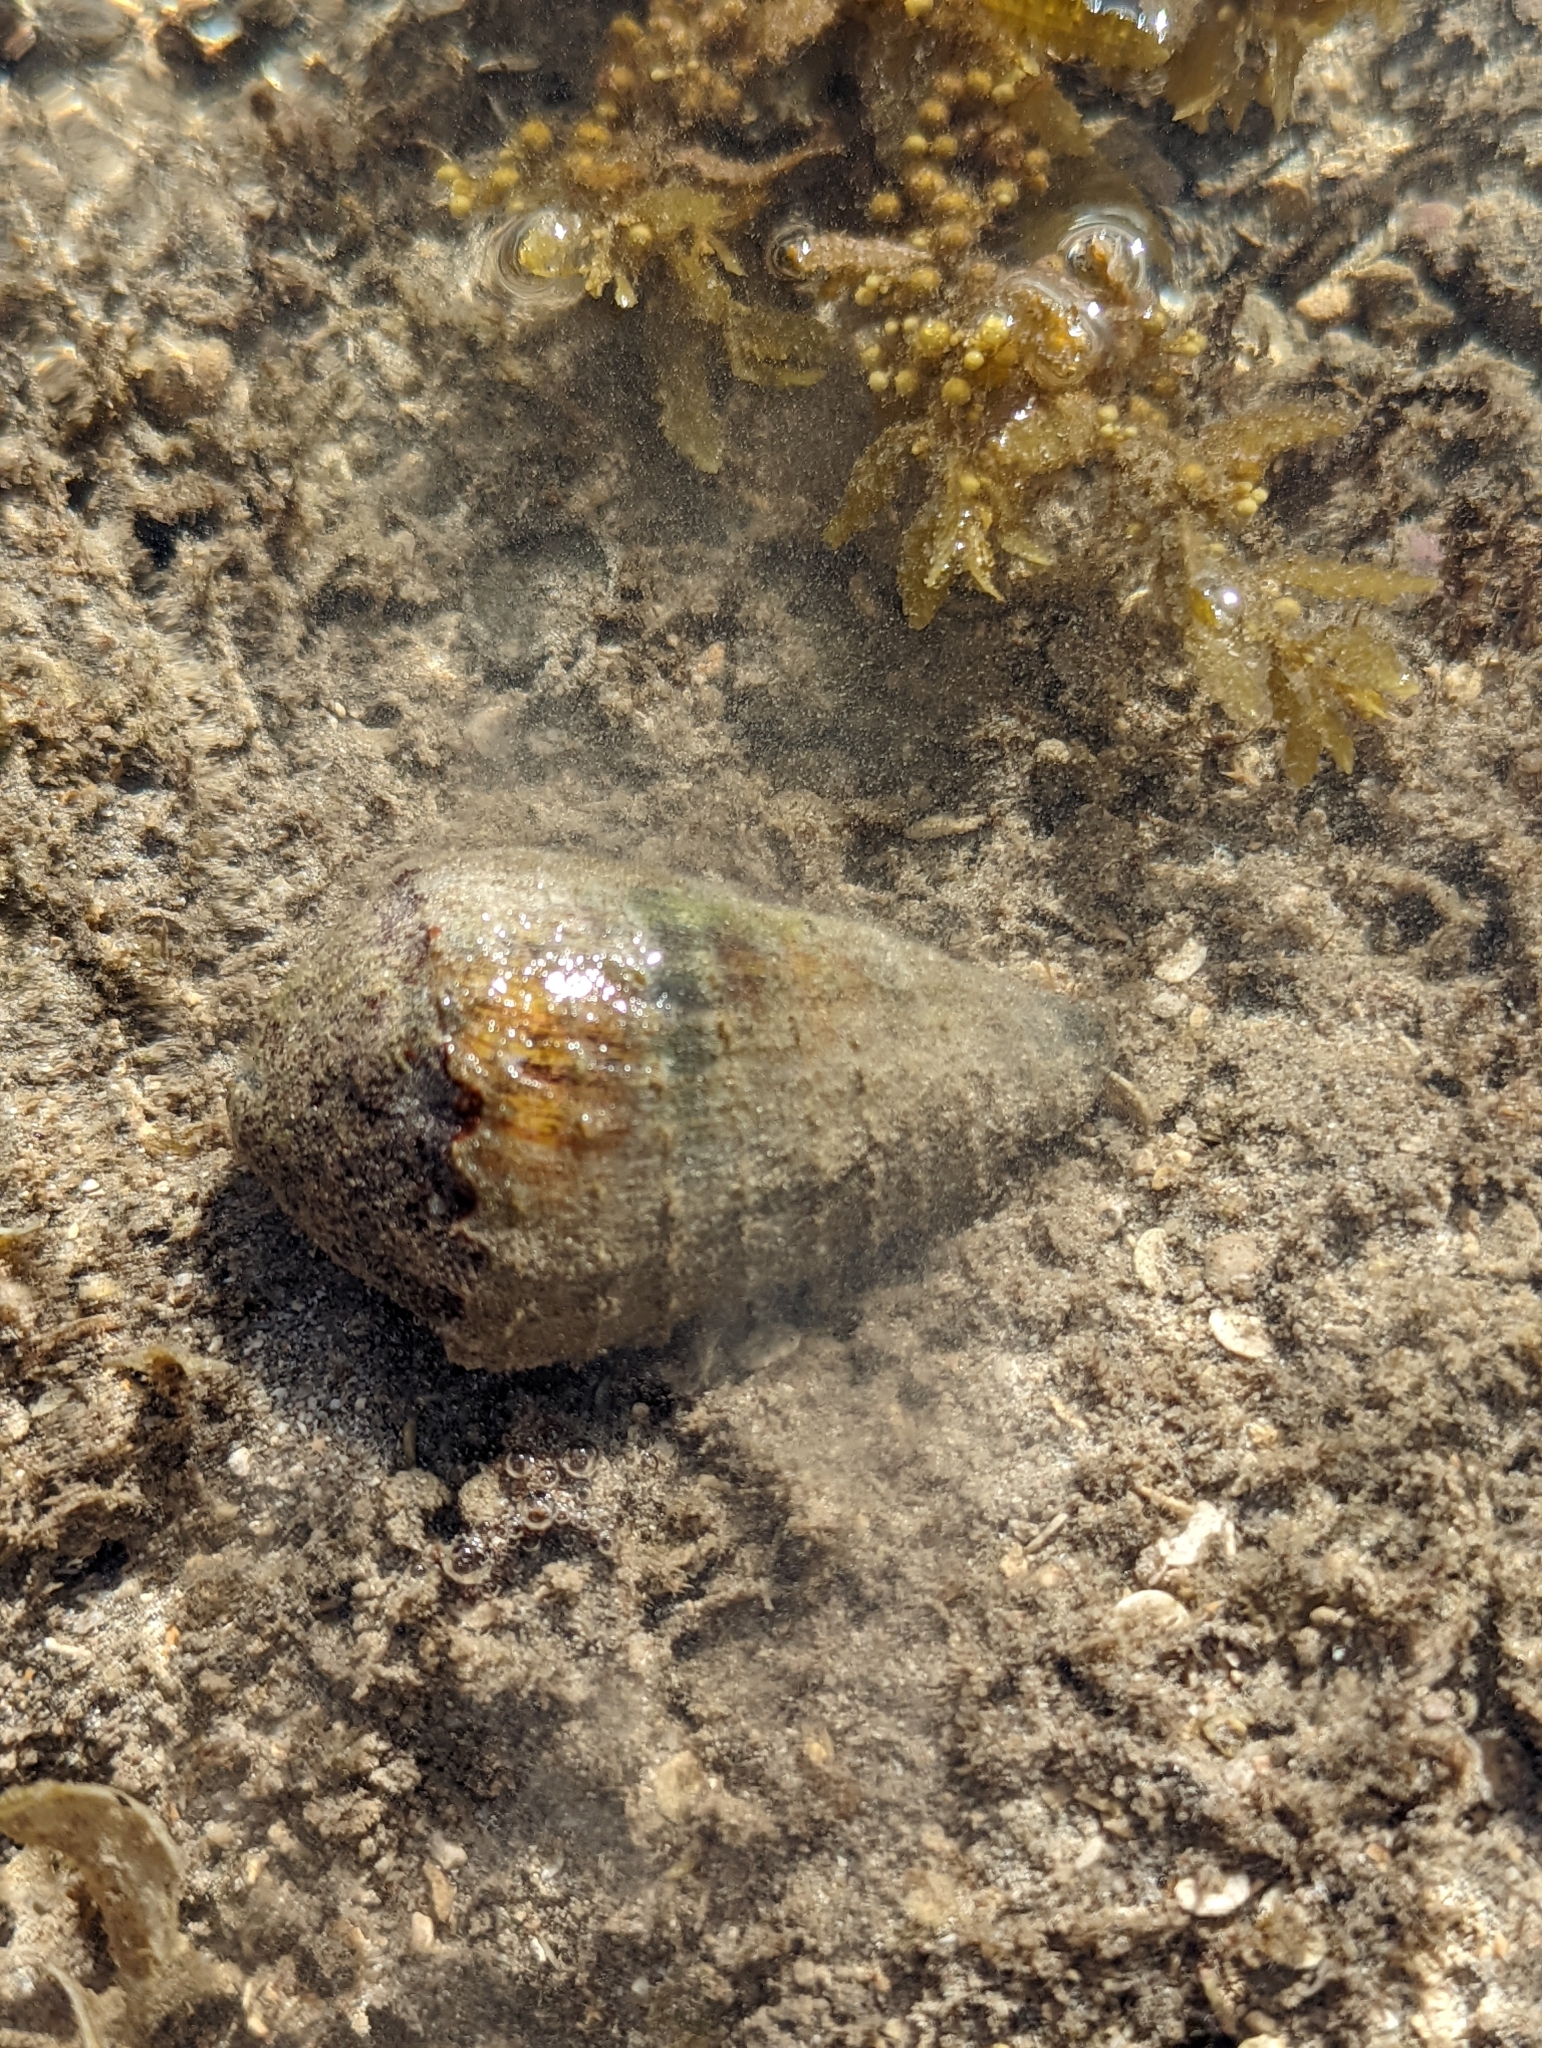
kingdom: Animalia
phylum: Mollusca
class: Gastropoda
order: Neogastropoda
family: Conidae
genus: Conus
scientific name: Conus miles
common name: Soldier cone
